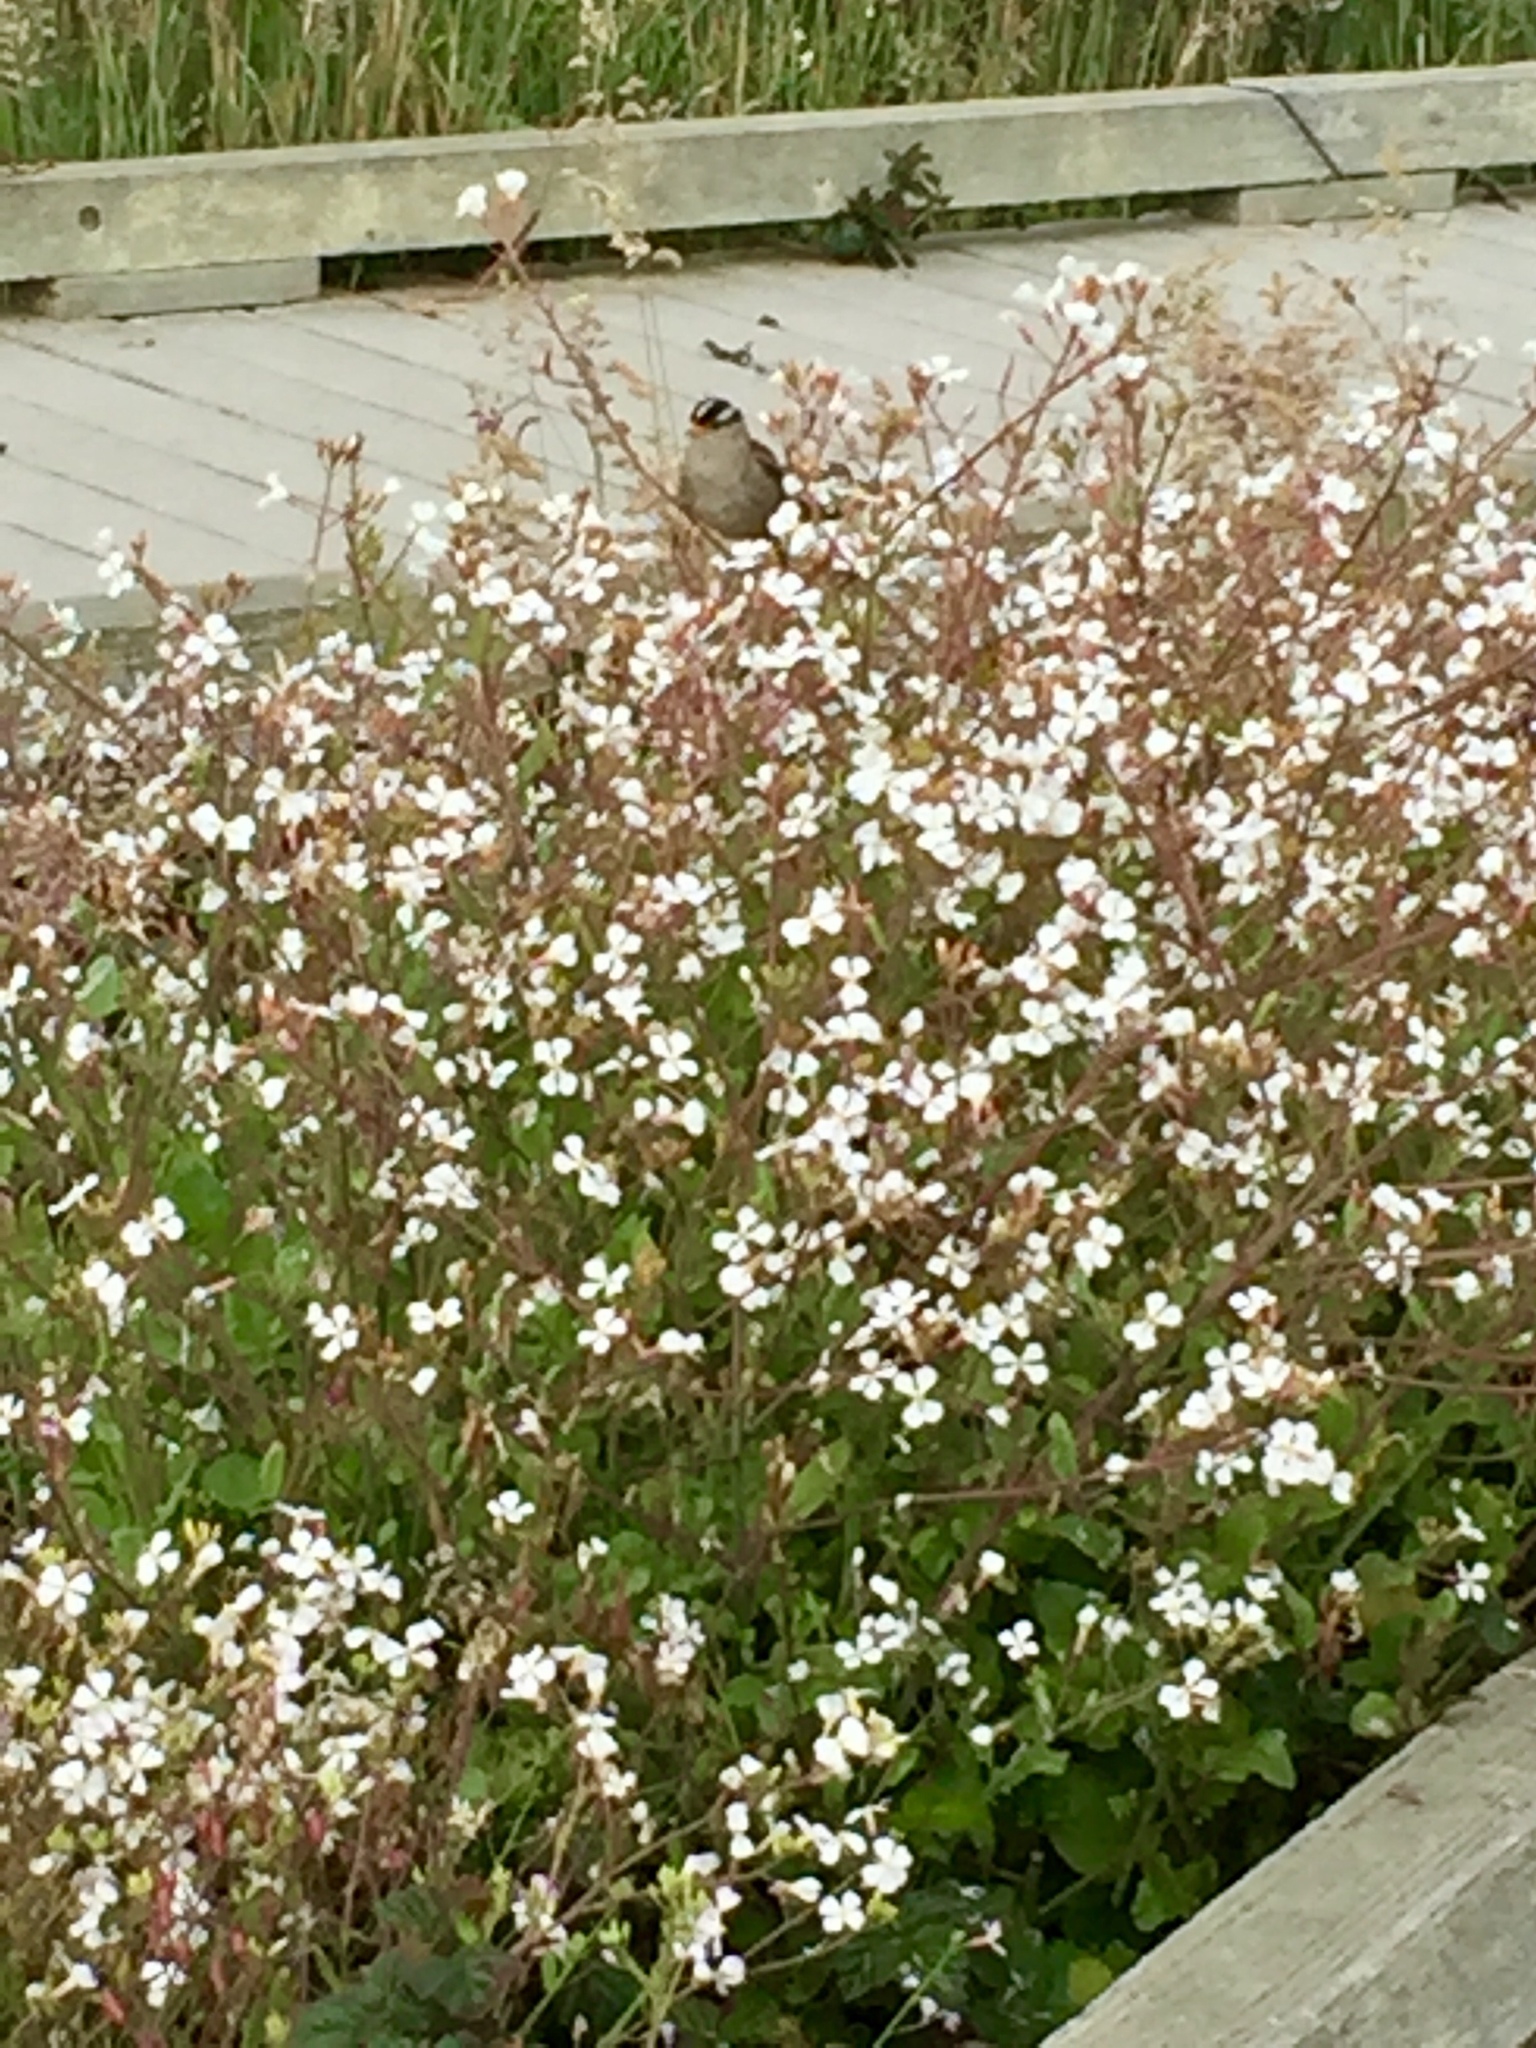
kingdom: Animalia
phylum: Chordata
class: Aves
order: Passeriformes
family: Passerellidae
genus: Zonotrichia
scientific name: Zonotrichia leucophrys
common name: White-crowned sparrow
